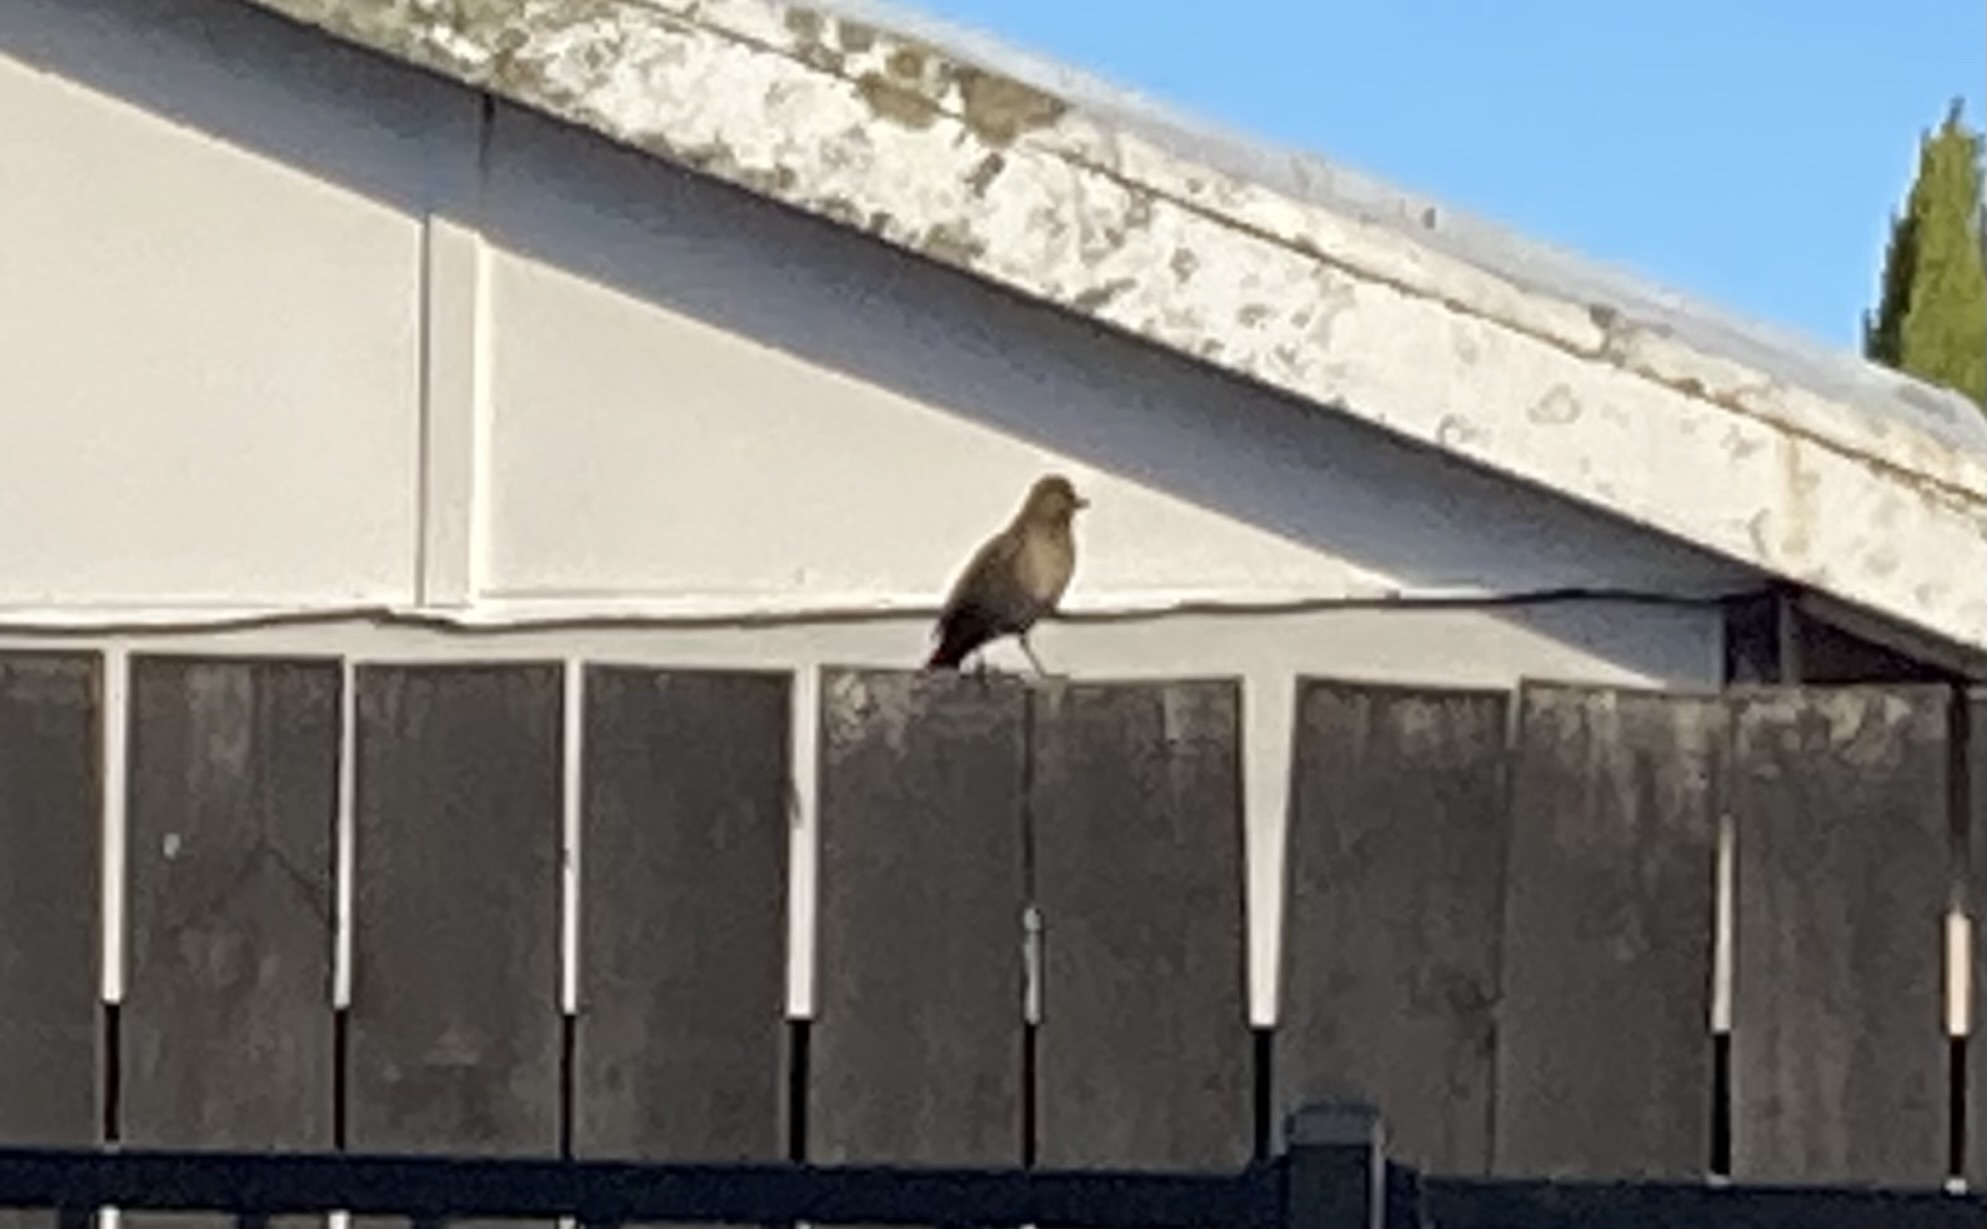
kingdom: Animalia
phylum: Chordata
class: Aves
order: Passeriformes
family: Turdidae
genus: Turdus
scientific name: Turdus merula
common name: Common blackbird
